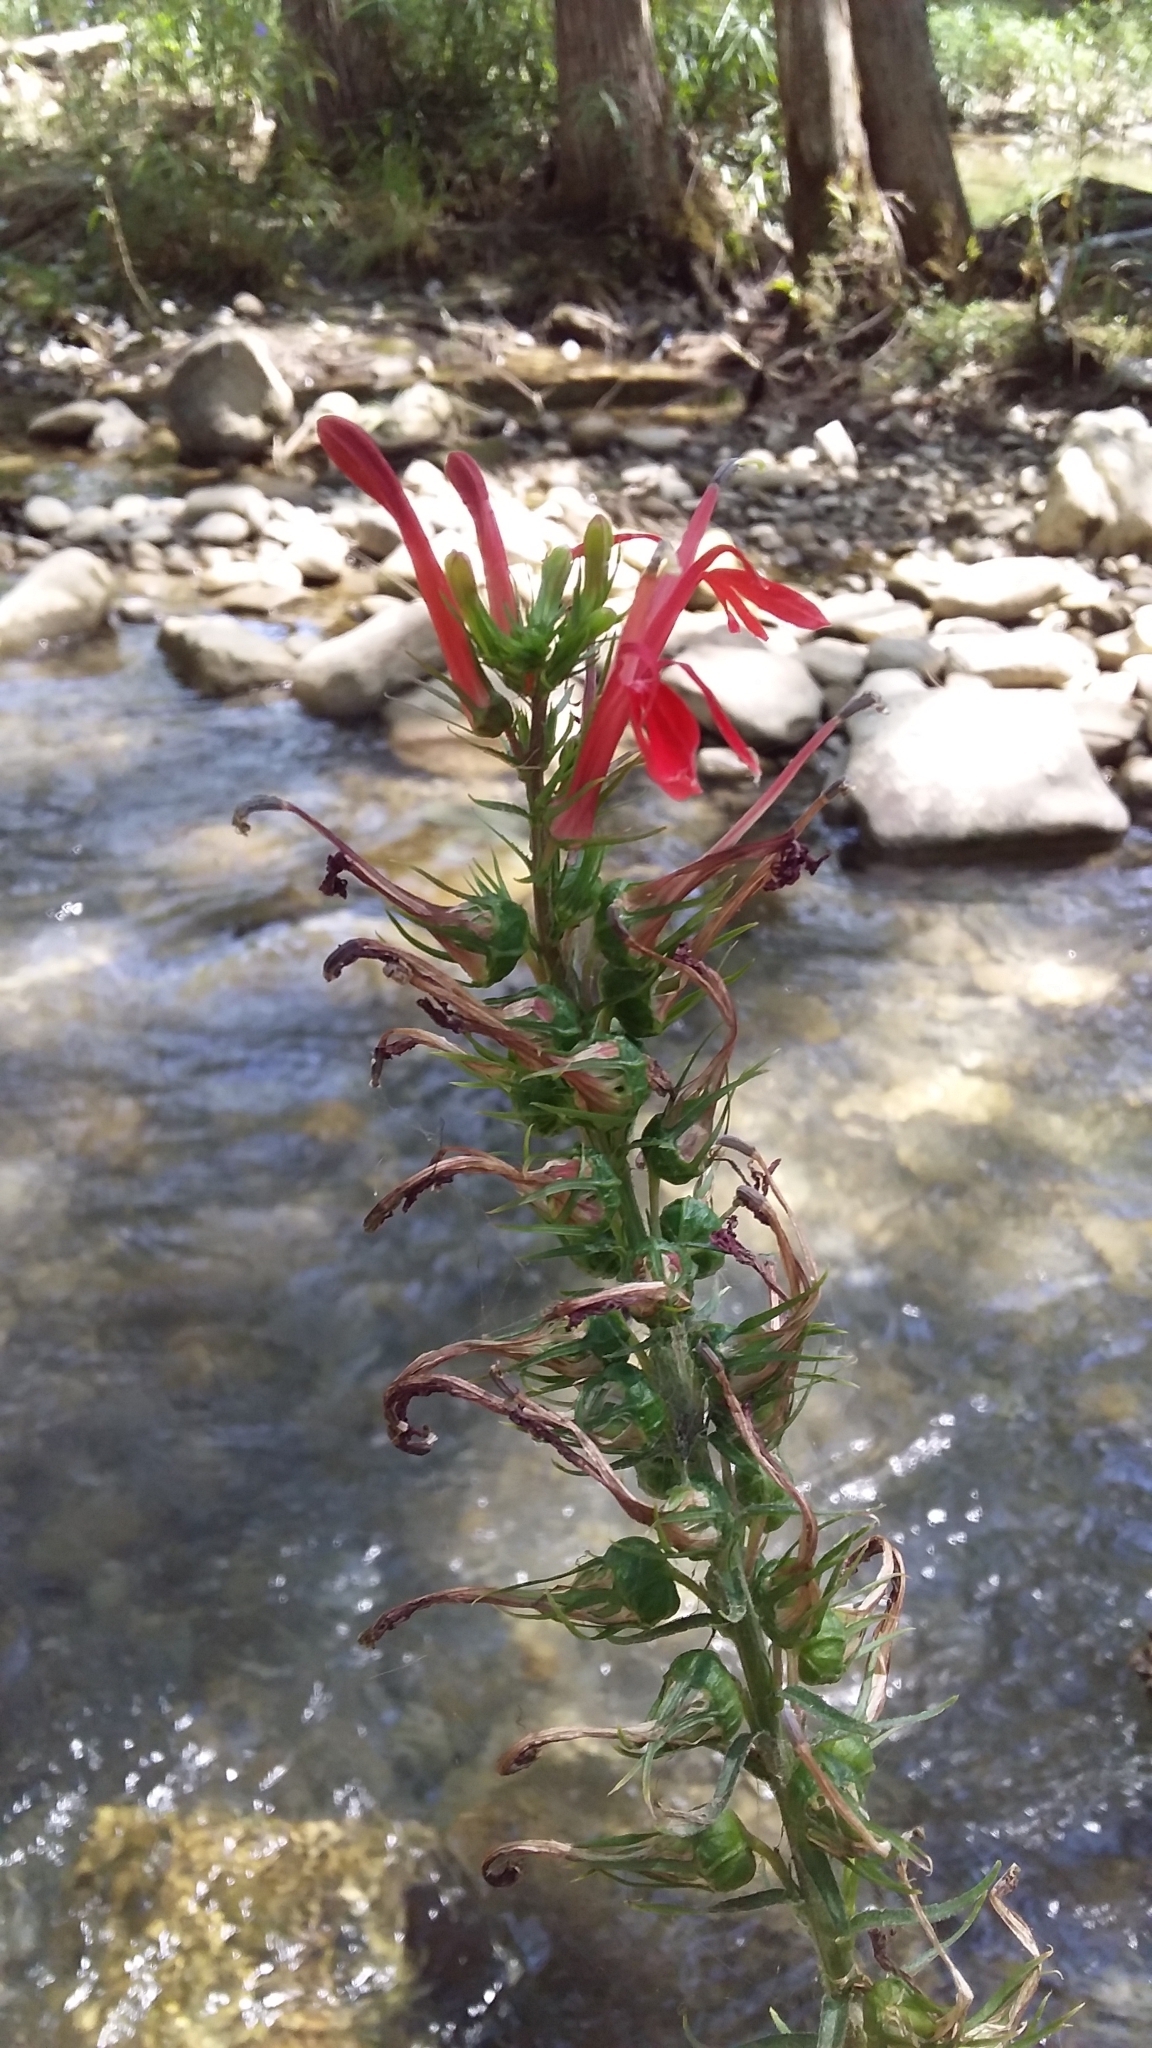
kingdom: Plantae
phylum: Tracheophyta
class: Magnoliopsida
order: Asterales
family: Campanulaceae
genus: Lobelia
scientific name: Lobelia cardinalis
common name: Cardinal flower
